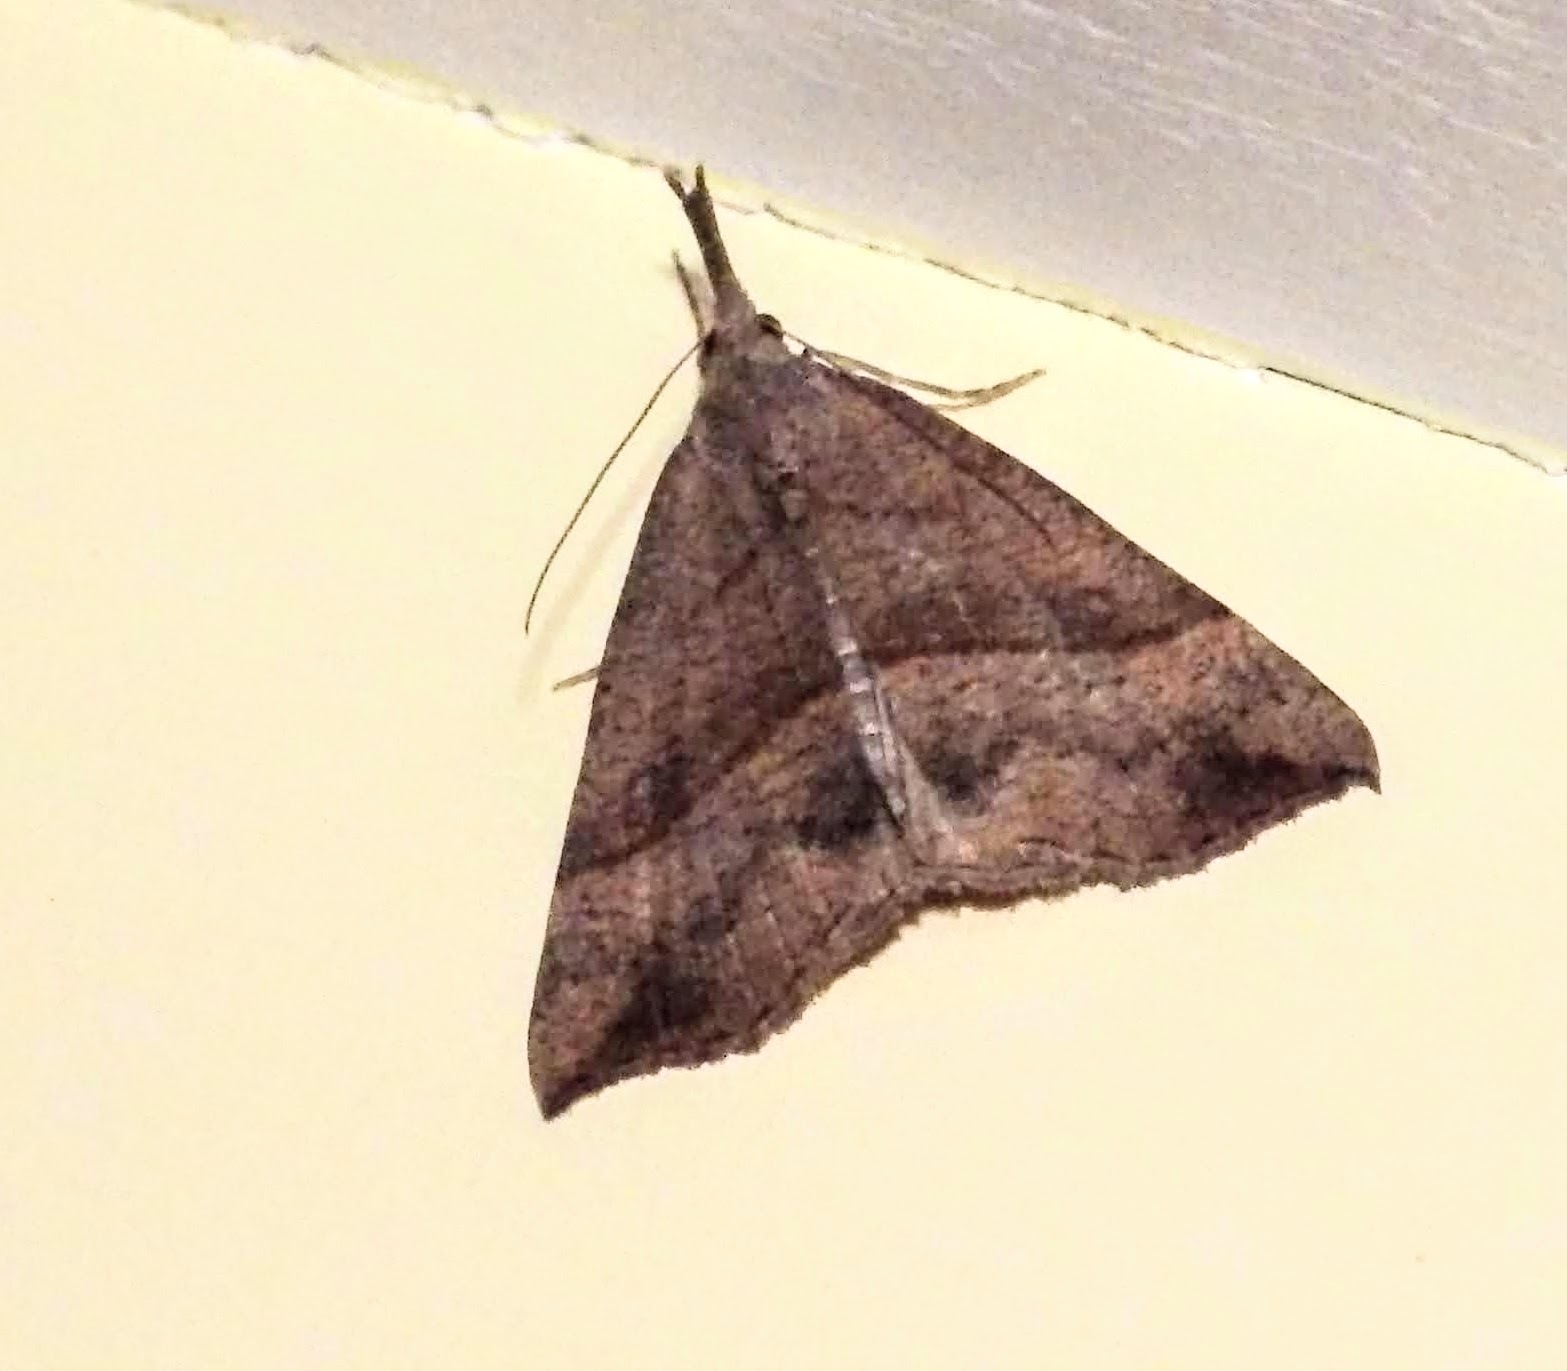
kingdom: Animalia
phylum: Arthropoda
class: Insecta
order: Lepidoptera
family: Erebidae
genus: Hypena
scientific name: Hypena proboscidalis
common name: Snout
